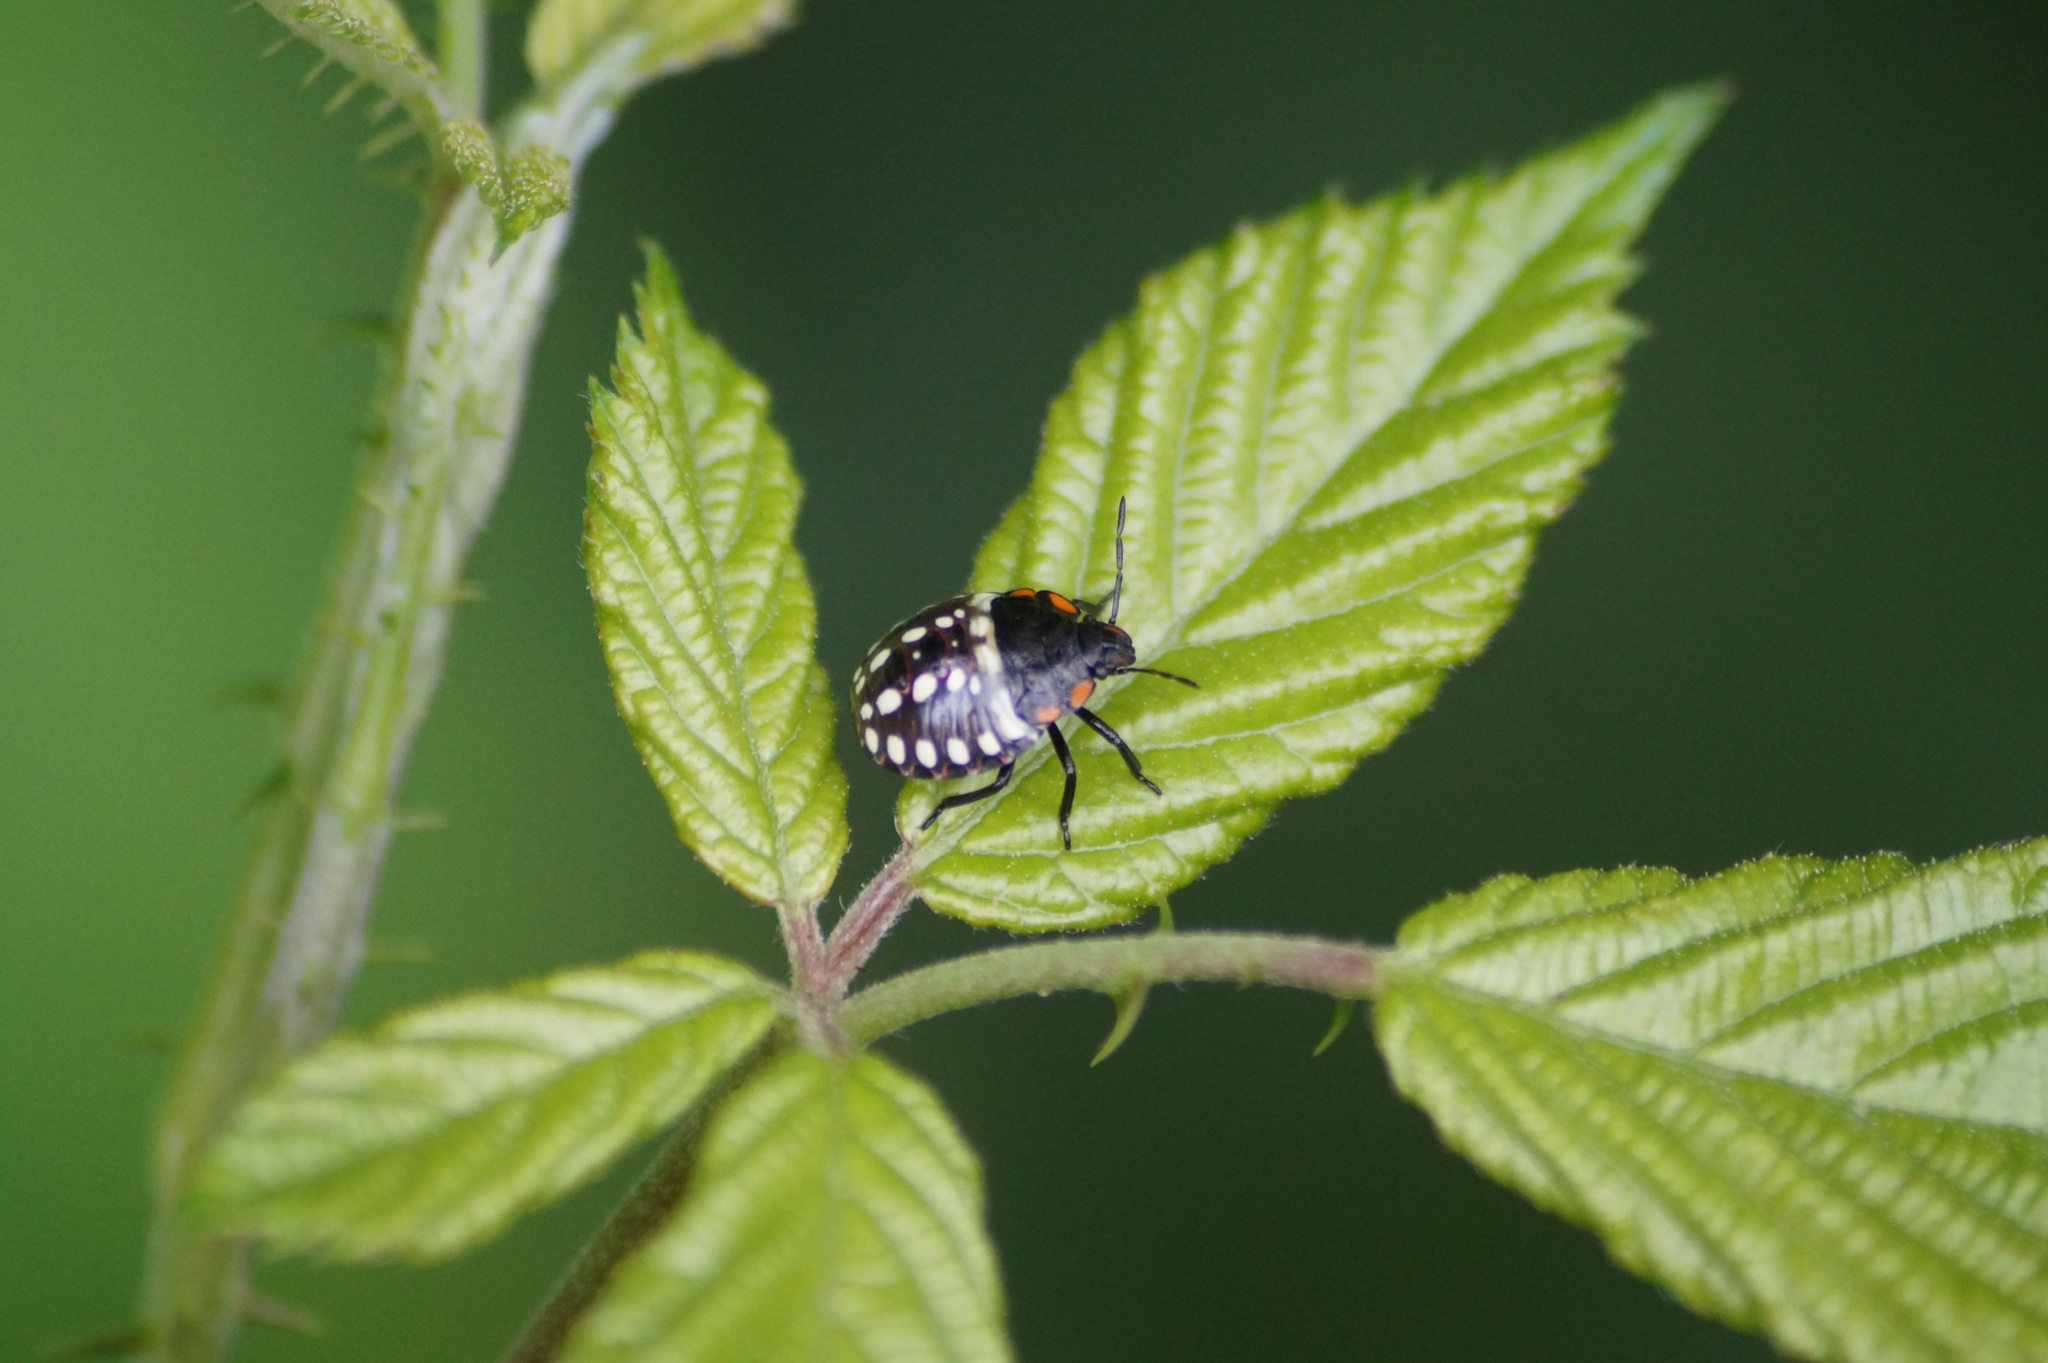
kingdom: Animalia
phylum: Arthropoda
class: Insecta
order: Hemiptera
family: Pentatomidae
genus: Nezara
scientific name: Nezara viridula
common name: Southern green stink bug
